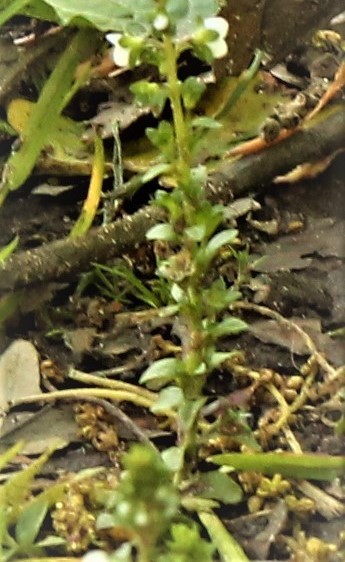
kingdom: Plantae
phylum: Tracheophyta
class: Magnoliopsida
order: Lamiales
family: Plantaginaceae
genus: Veronica
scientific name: Veronica serpyllifolia
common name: Thyme-leaved speedwell
